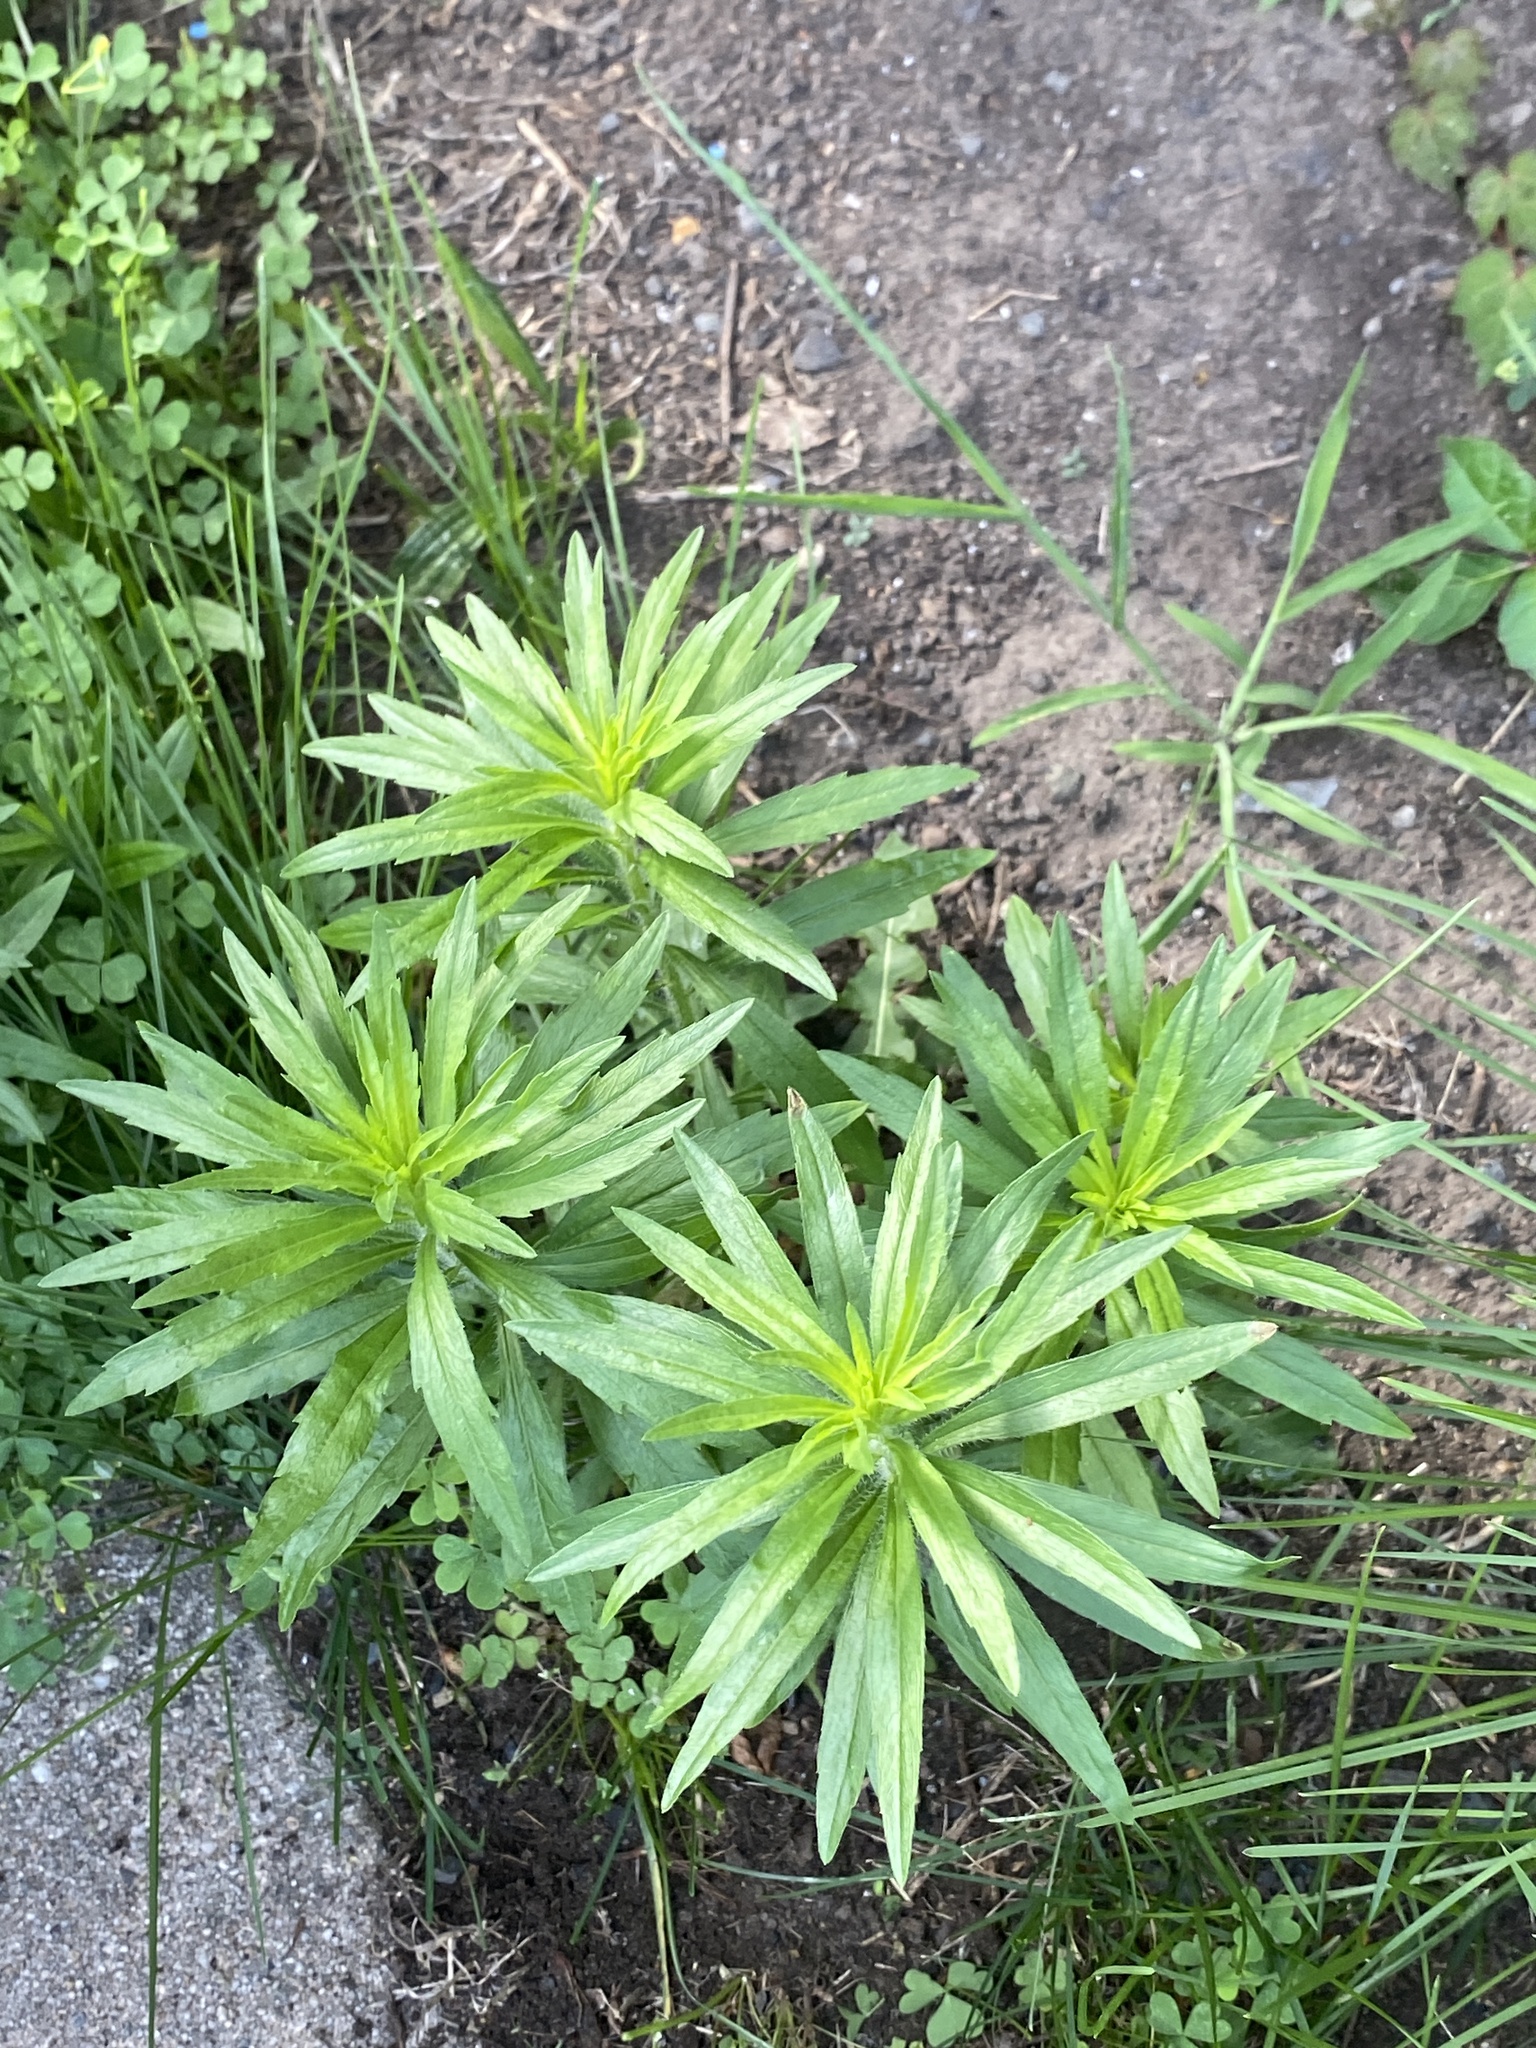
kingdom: Plantae
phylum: Tracheophyta
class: Magnoliopsida
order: Asterales
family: Asteraceae
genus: Erigeron
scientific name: Erigeron canadensis
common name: Canadian fleabane
